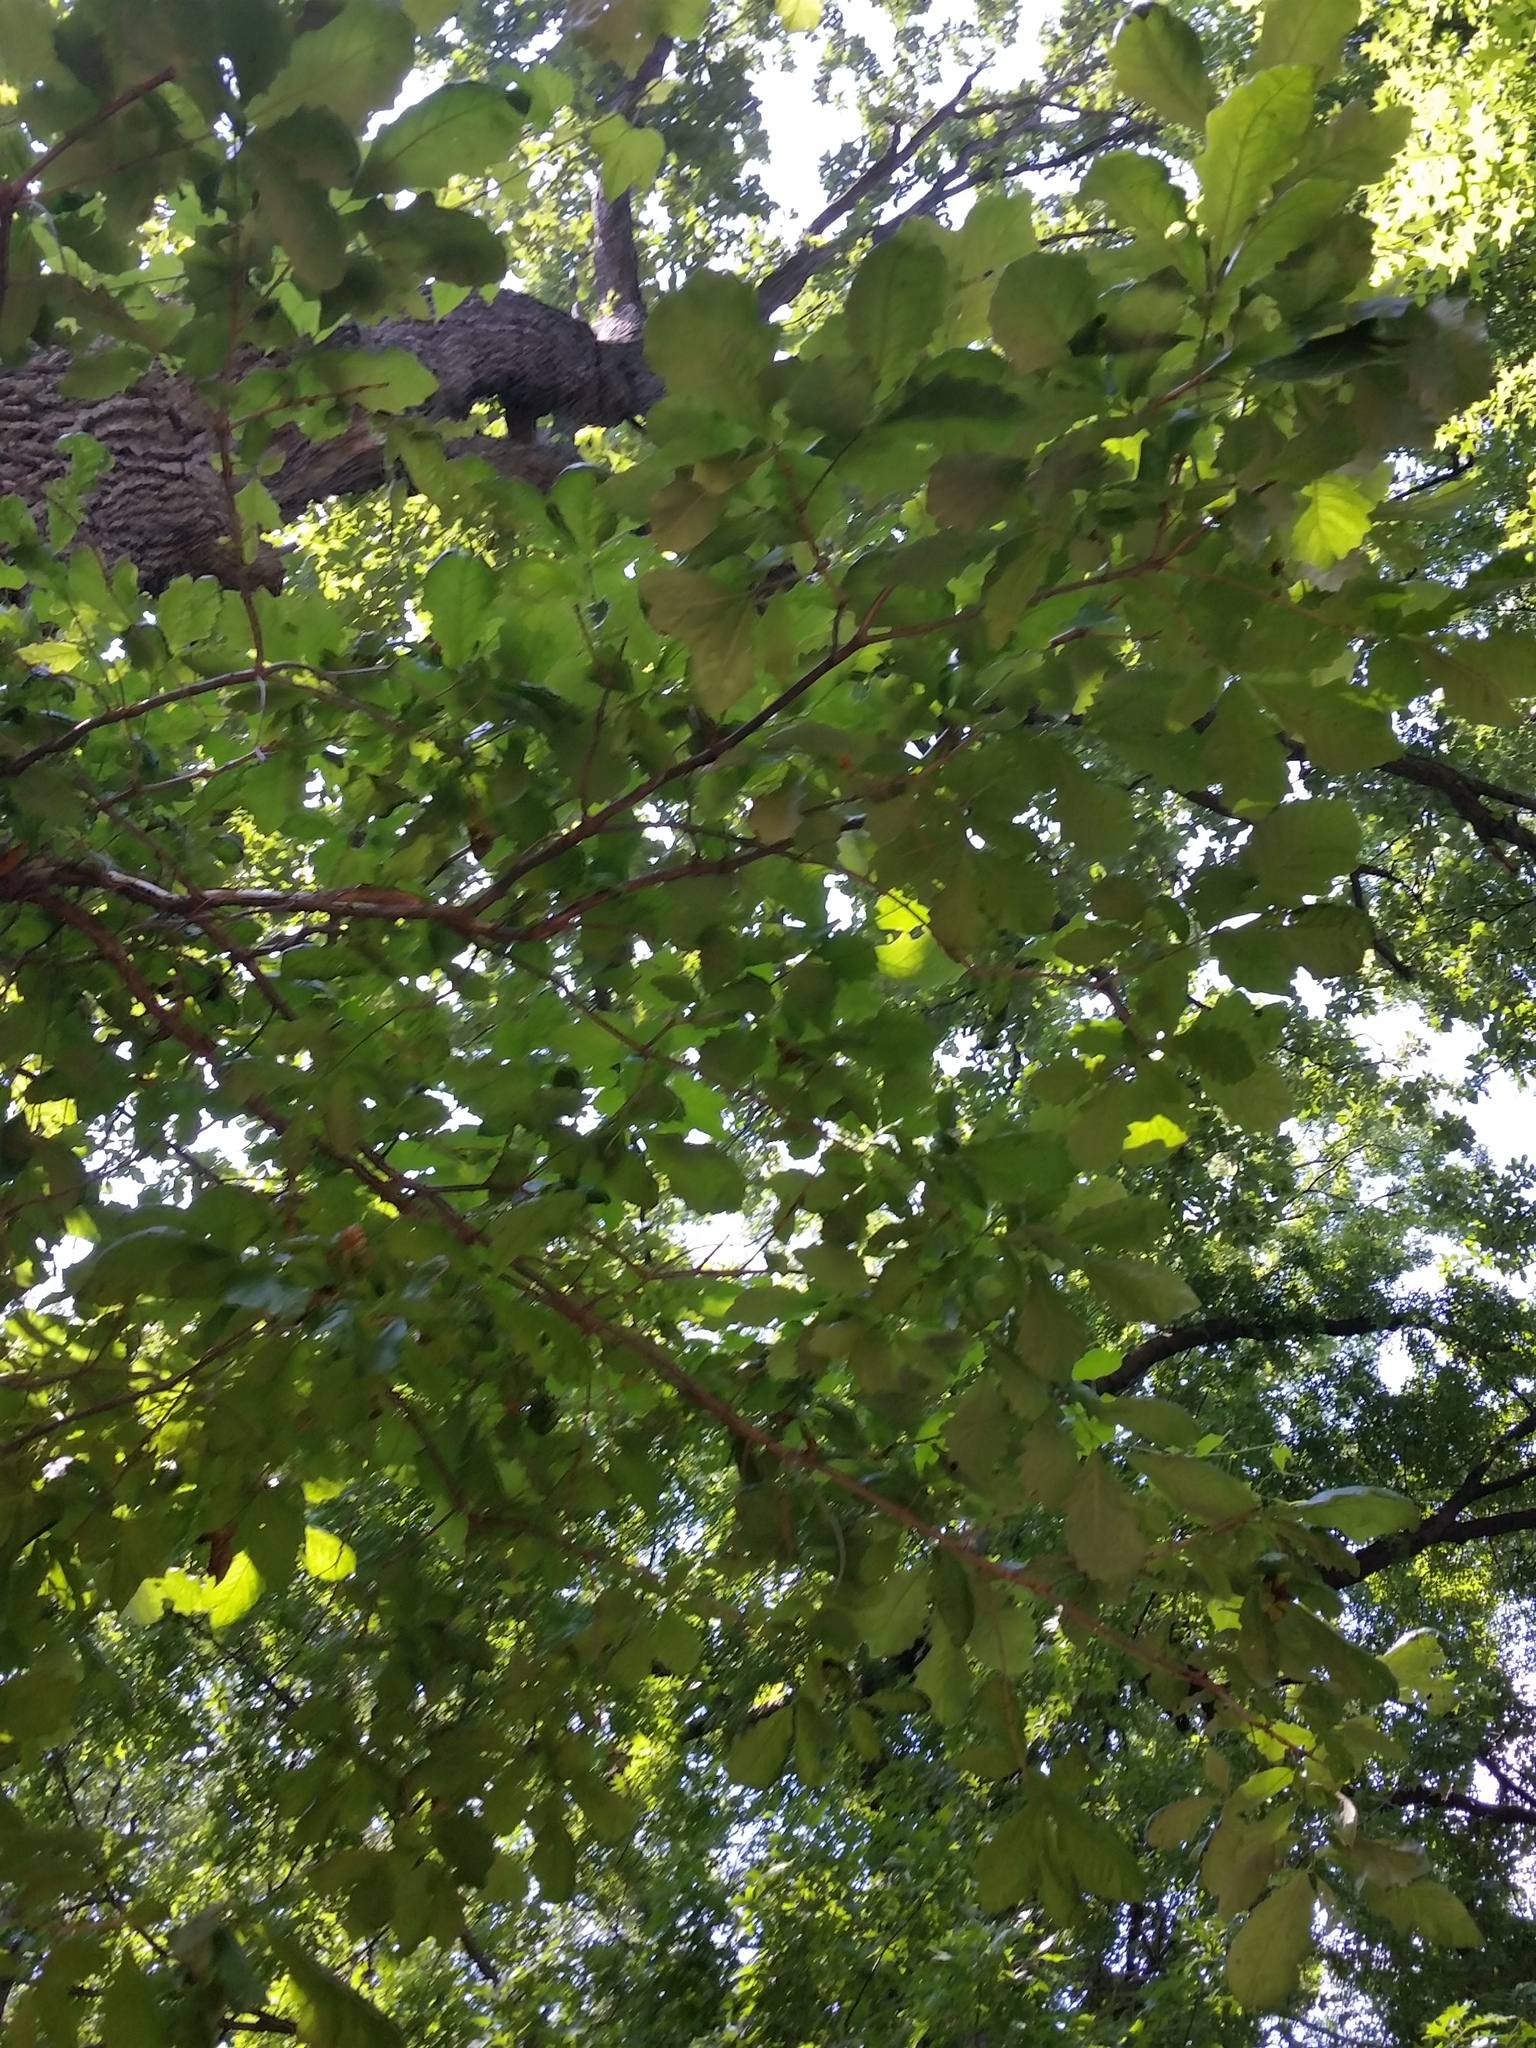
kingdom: Plantae
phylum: Tracheophyta
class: Magnoliopsida
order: Fagales
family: Fagaceae
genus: Quercus
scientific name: Quercus bicolor
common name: Swamp white oak
